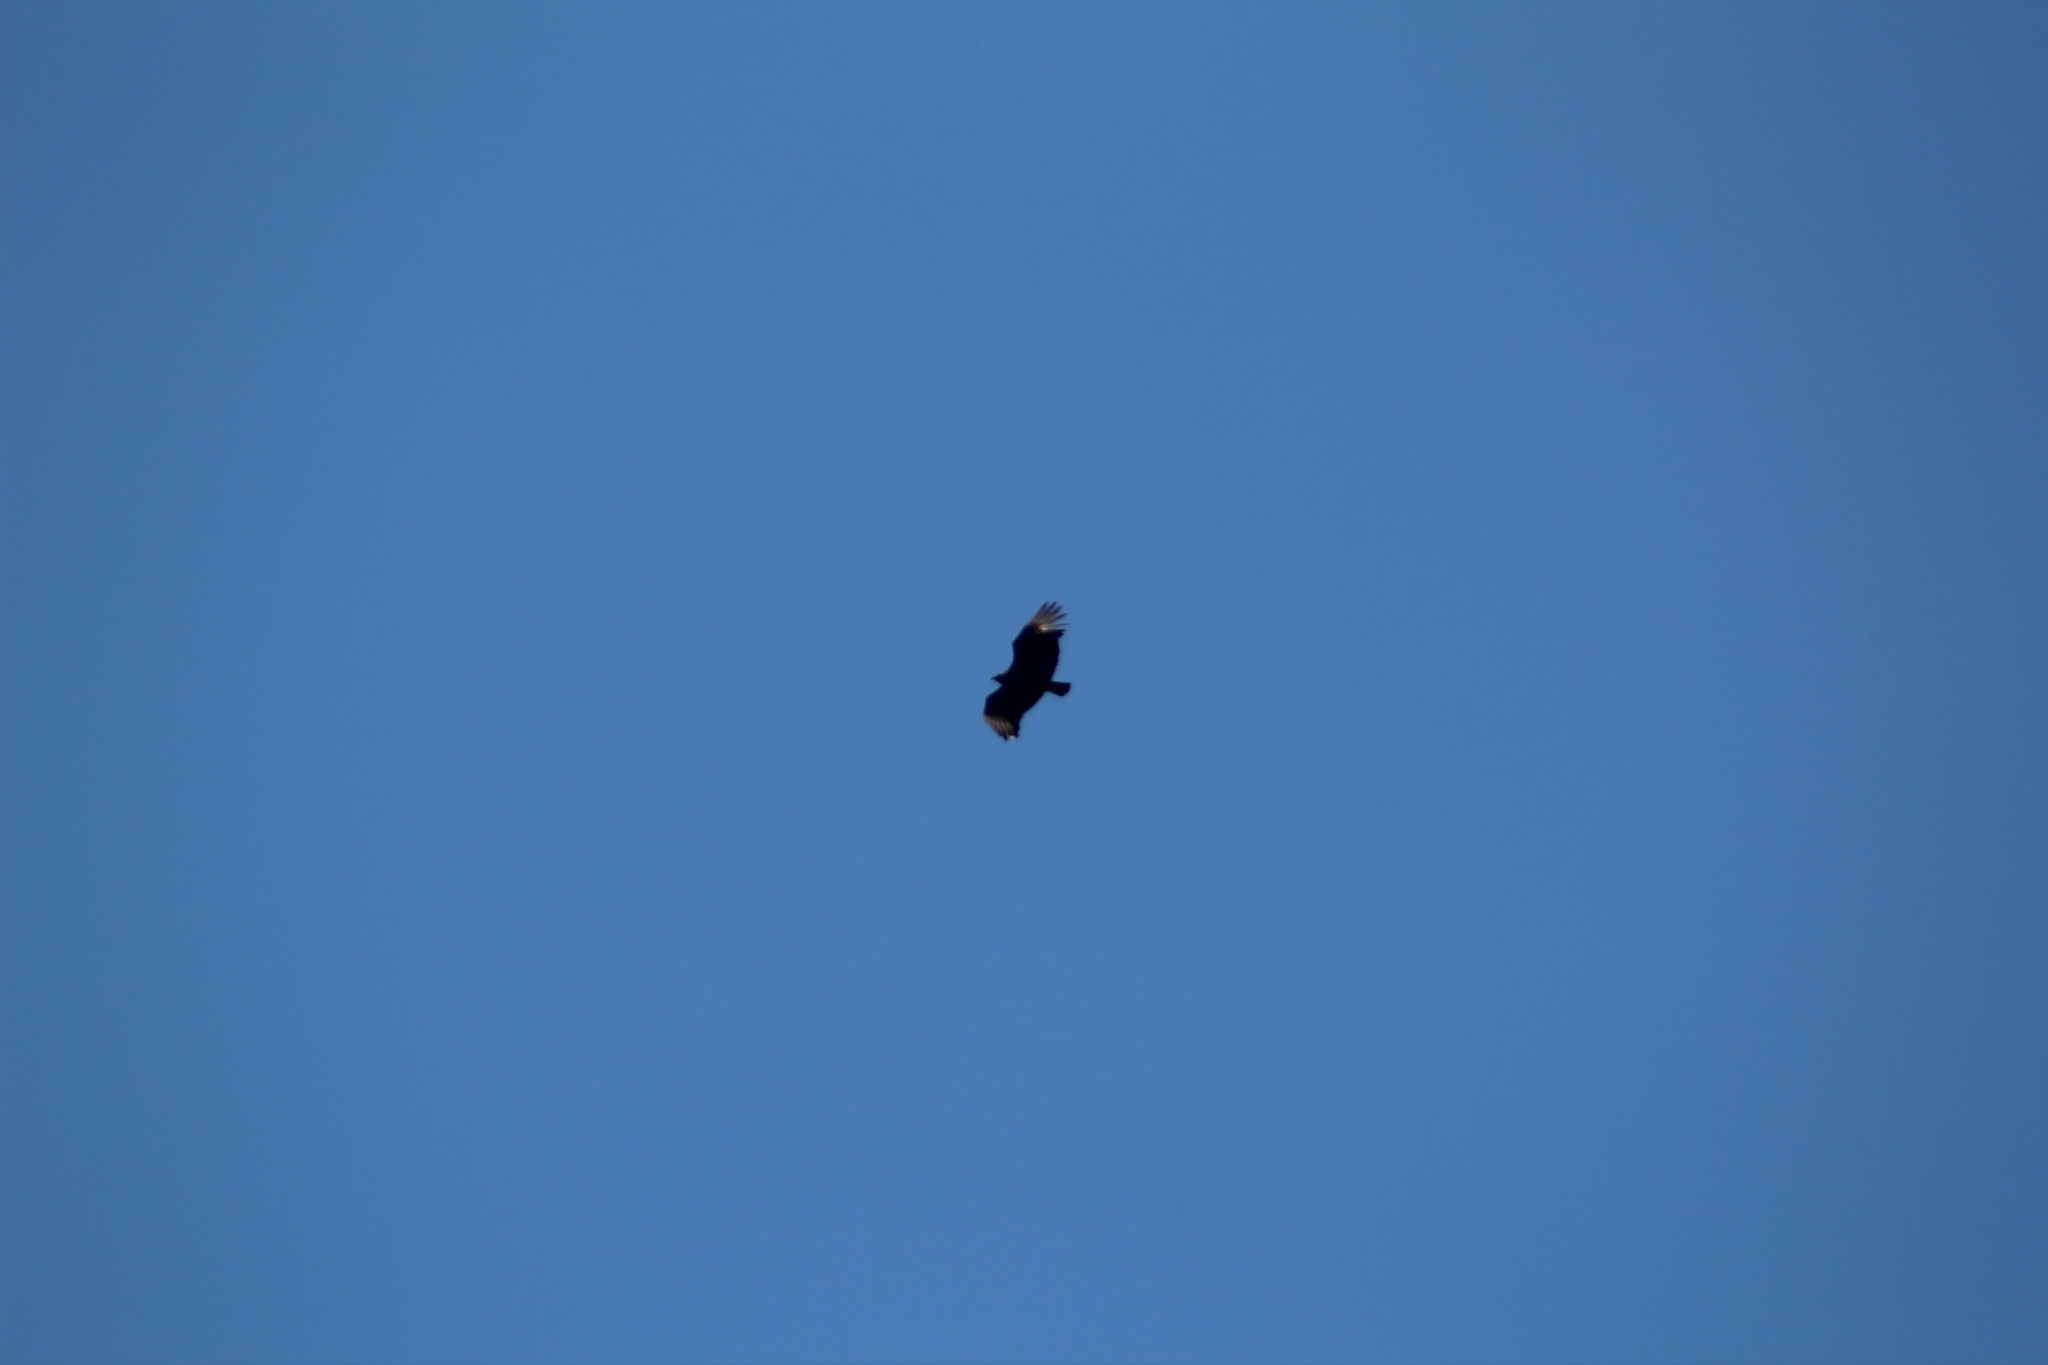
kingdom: Animalia
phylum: Chordata
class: Aves
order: Accipitriformes
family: Cathartidae
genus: Coragyps
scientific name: Coragyps atratus
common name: Black vulture
